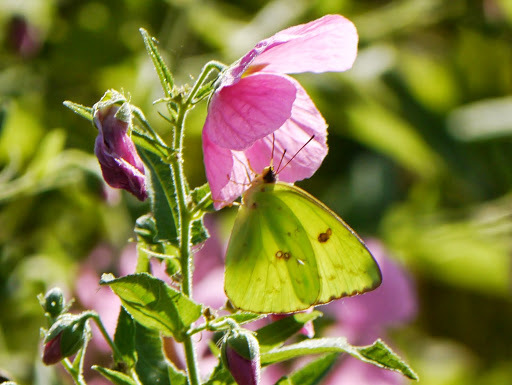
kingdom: Animalia
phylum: Arthropoda
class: Insecta
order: Lepidoptera
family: Pieridae
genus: Phoebis
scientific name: Phoebis sennae
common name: Cloudless sulphur
